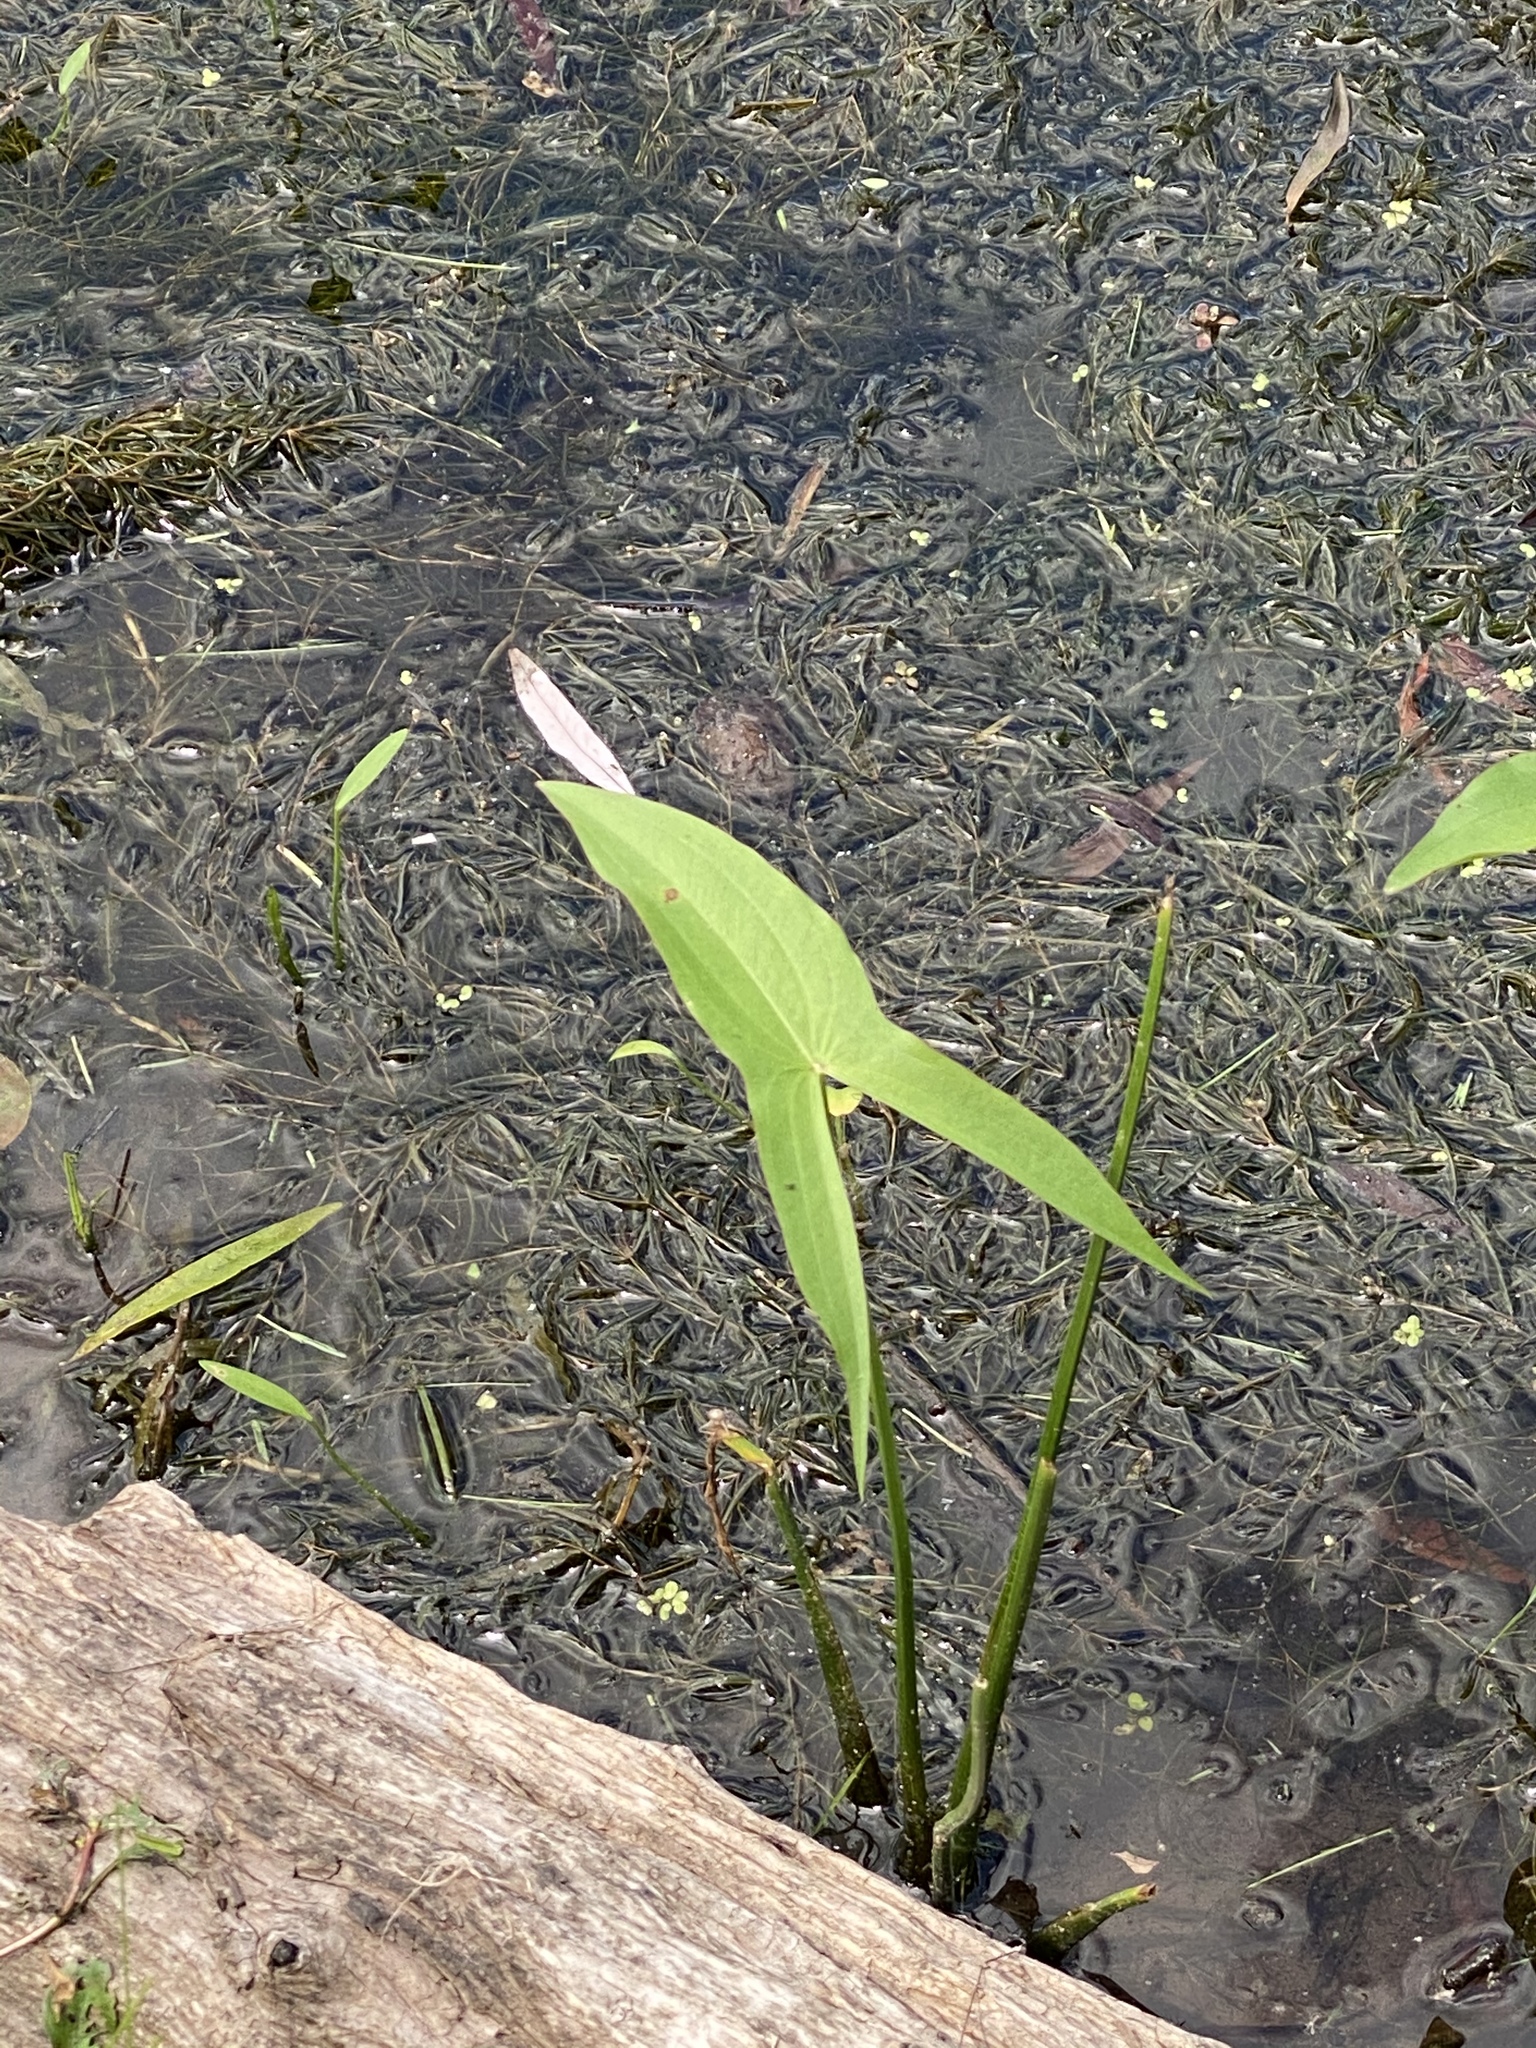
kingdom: Plantae
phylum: Tracheophyta
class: Liliopsida
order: Alismatales
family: Alismataceae
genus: Sagittaria
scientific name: Sagittaria latifolia
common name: Duck-potato
